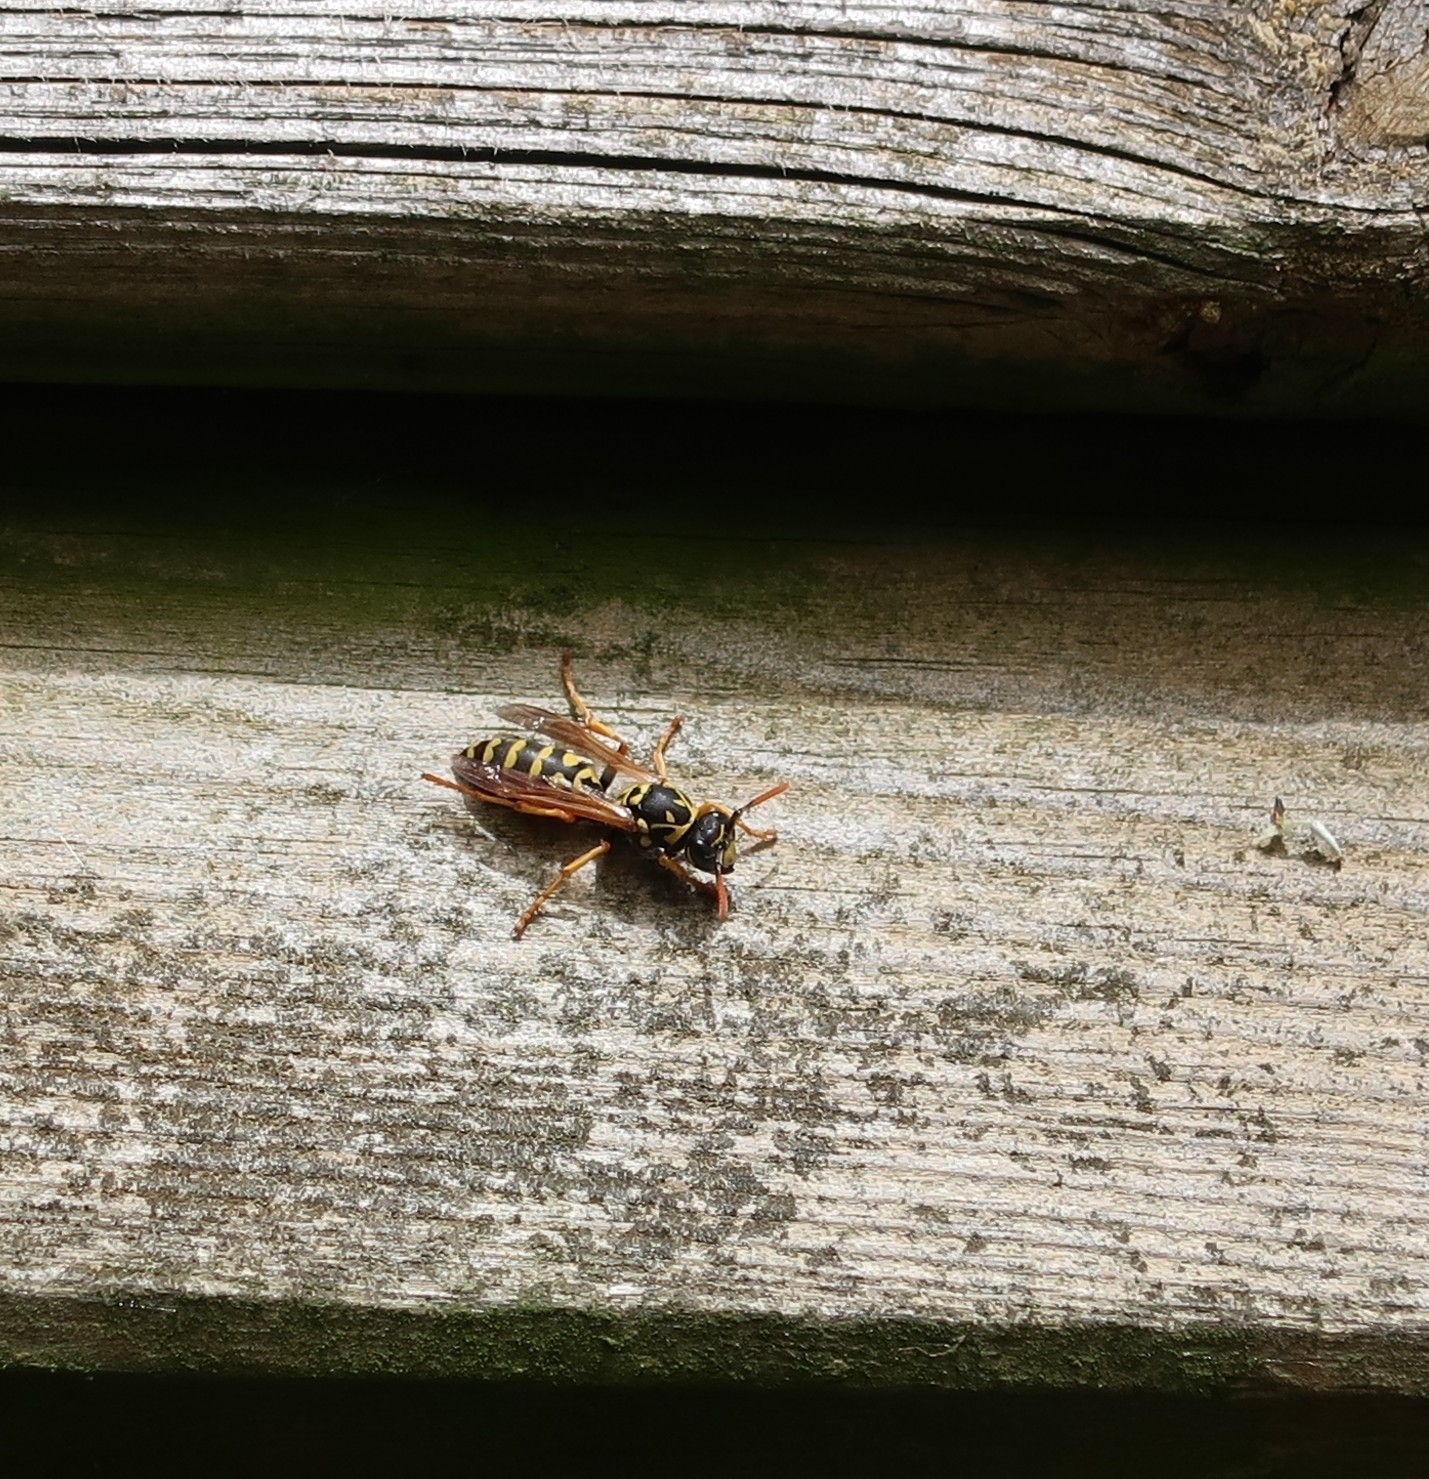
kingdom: Animalia
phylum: Arthropoda
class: Insecta
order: Hymenoptera
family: Eumenidae
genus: Polistes
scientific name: Polistes dominula
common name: Paper wasp
